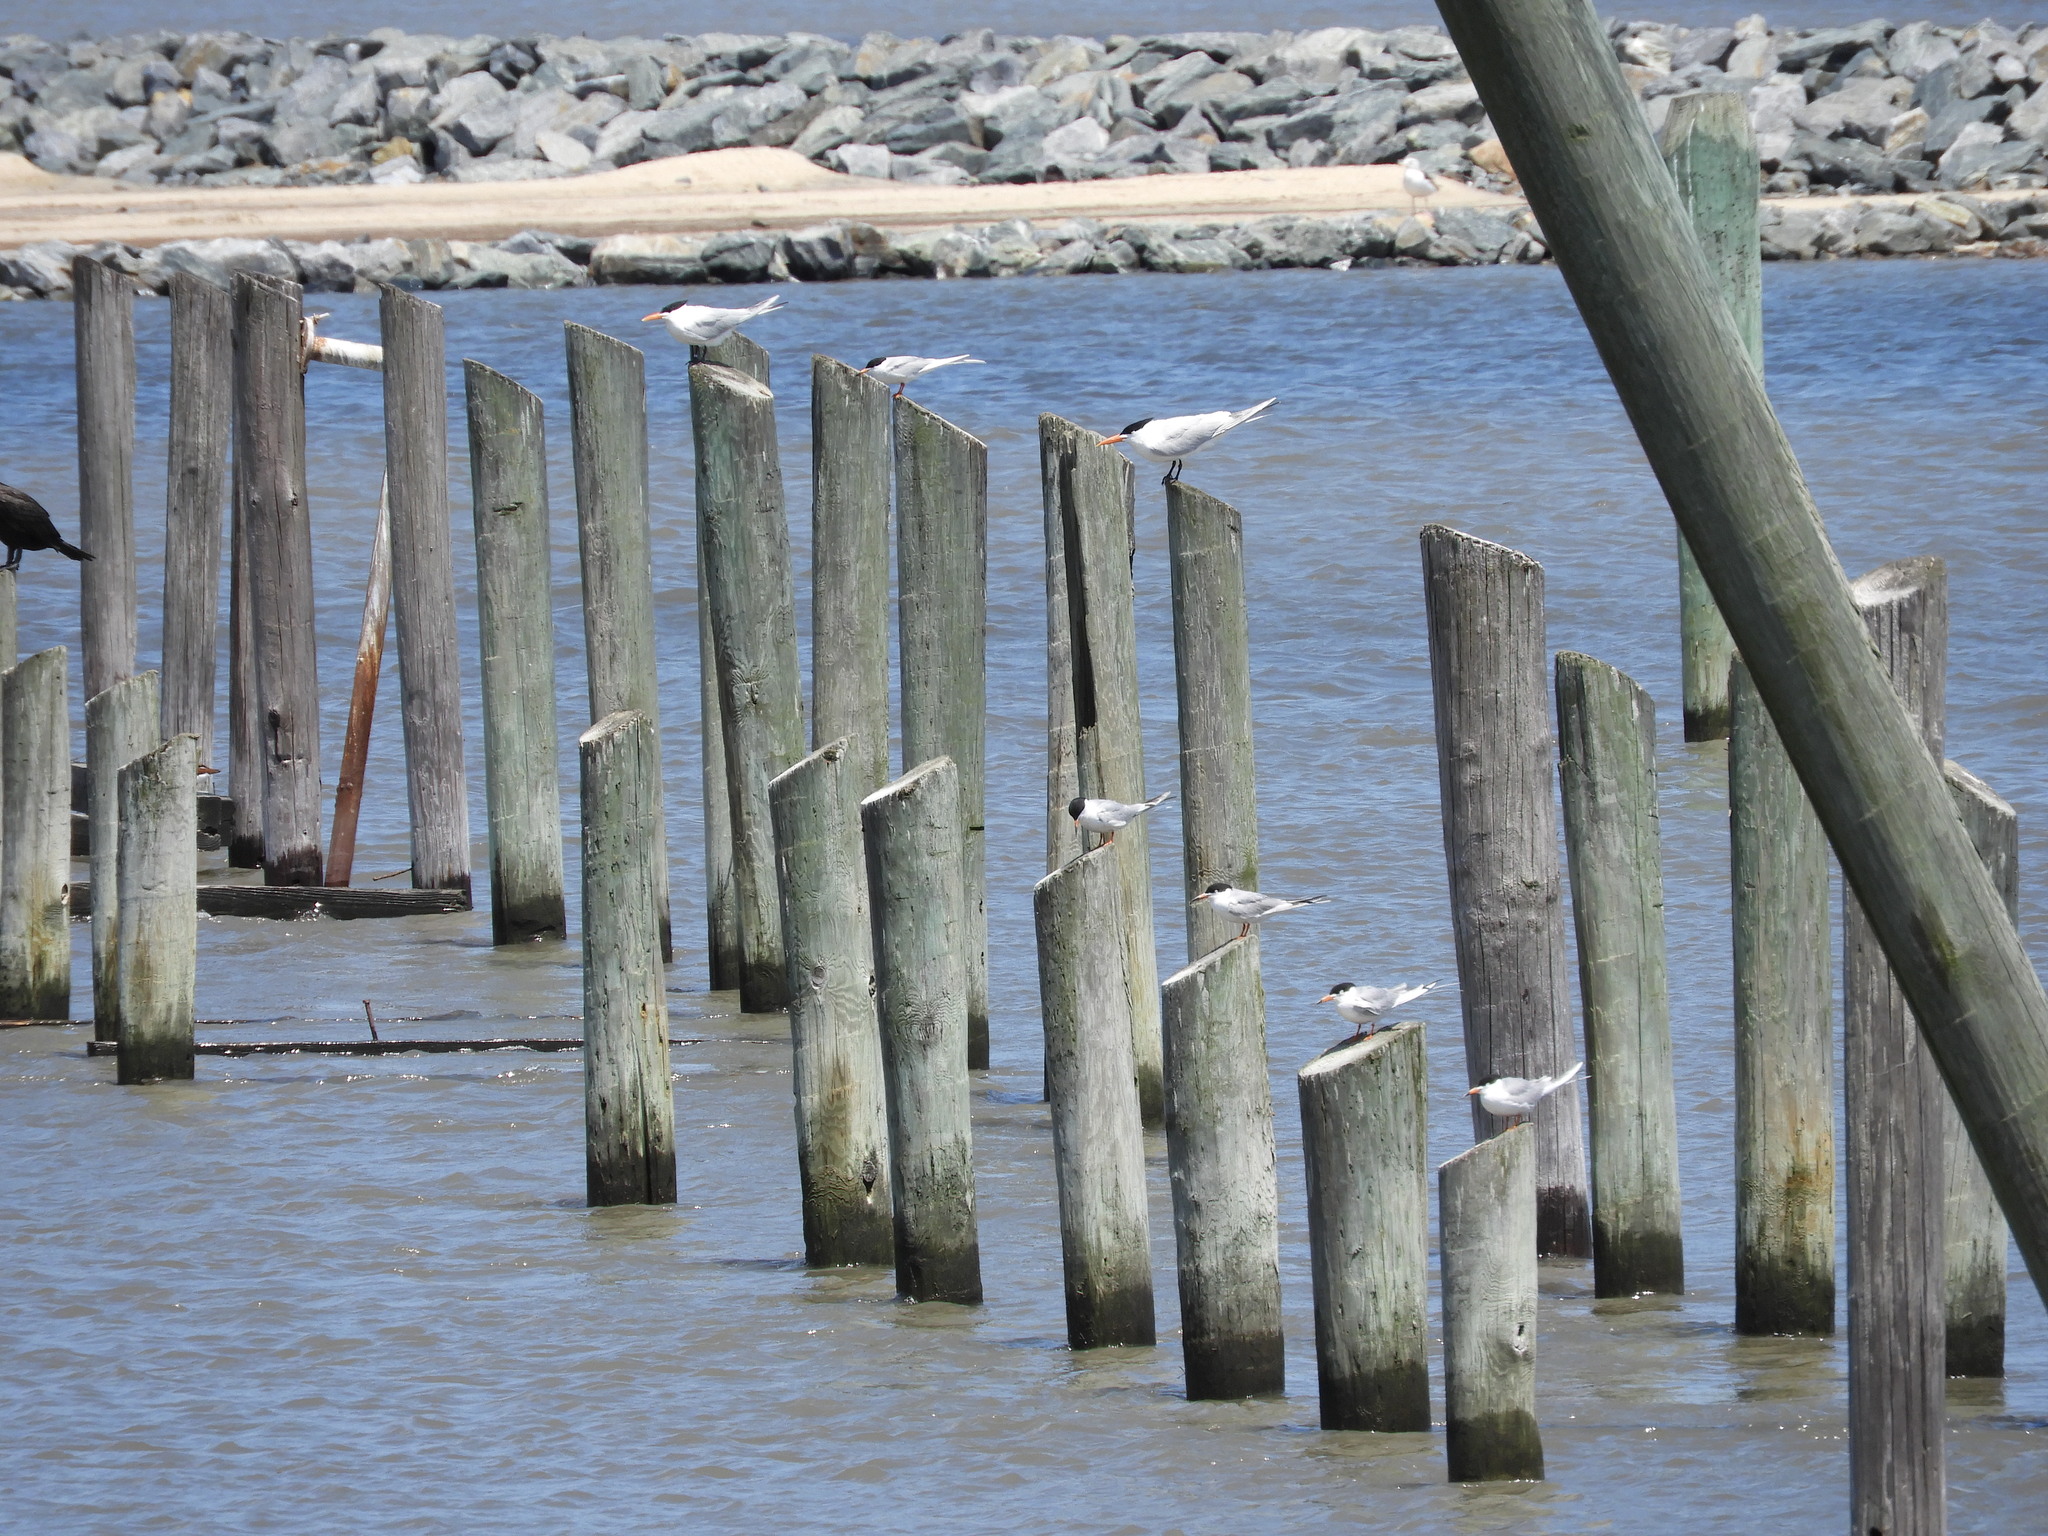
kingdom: Animalia
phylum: Chordata
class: Aves
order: Charadriiformes
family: Laridae
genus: Sterna
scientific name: Sterna hirundo
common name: Common tern
